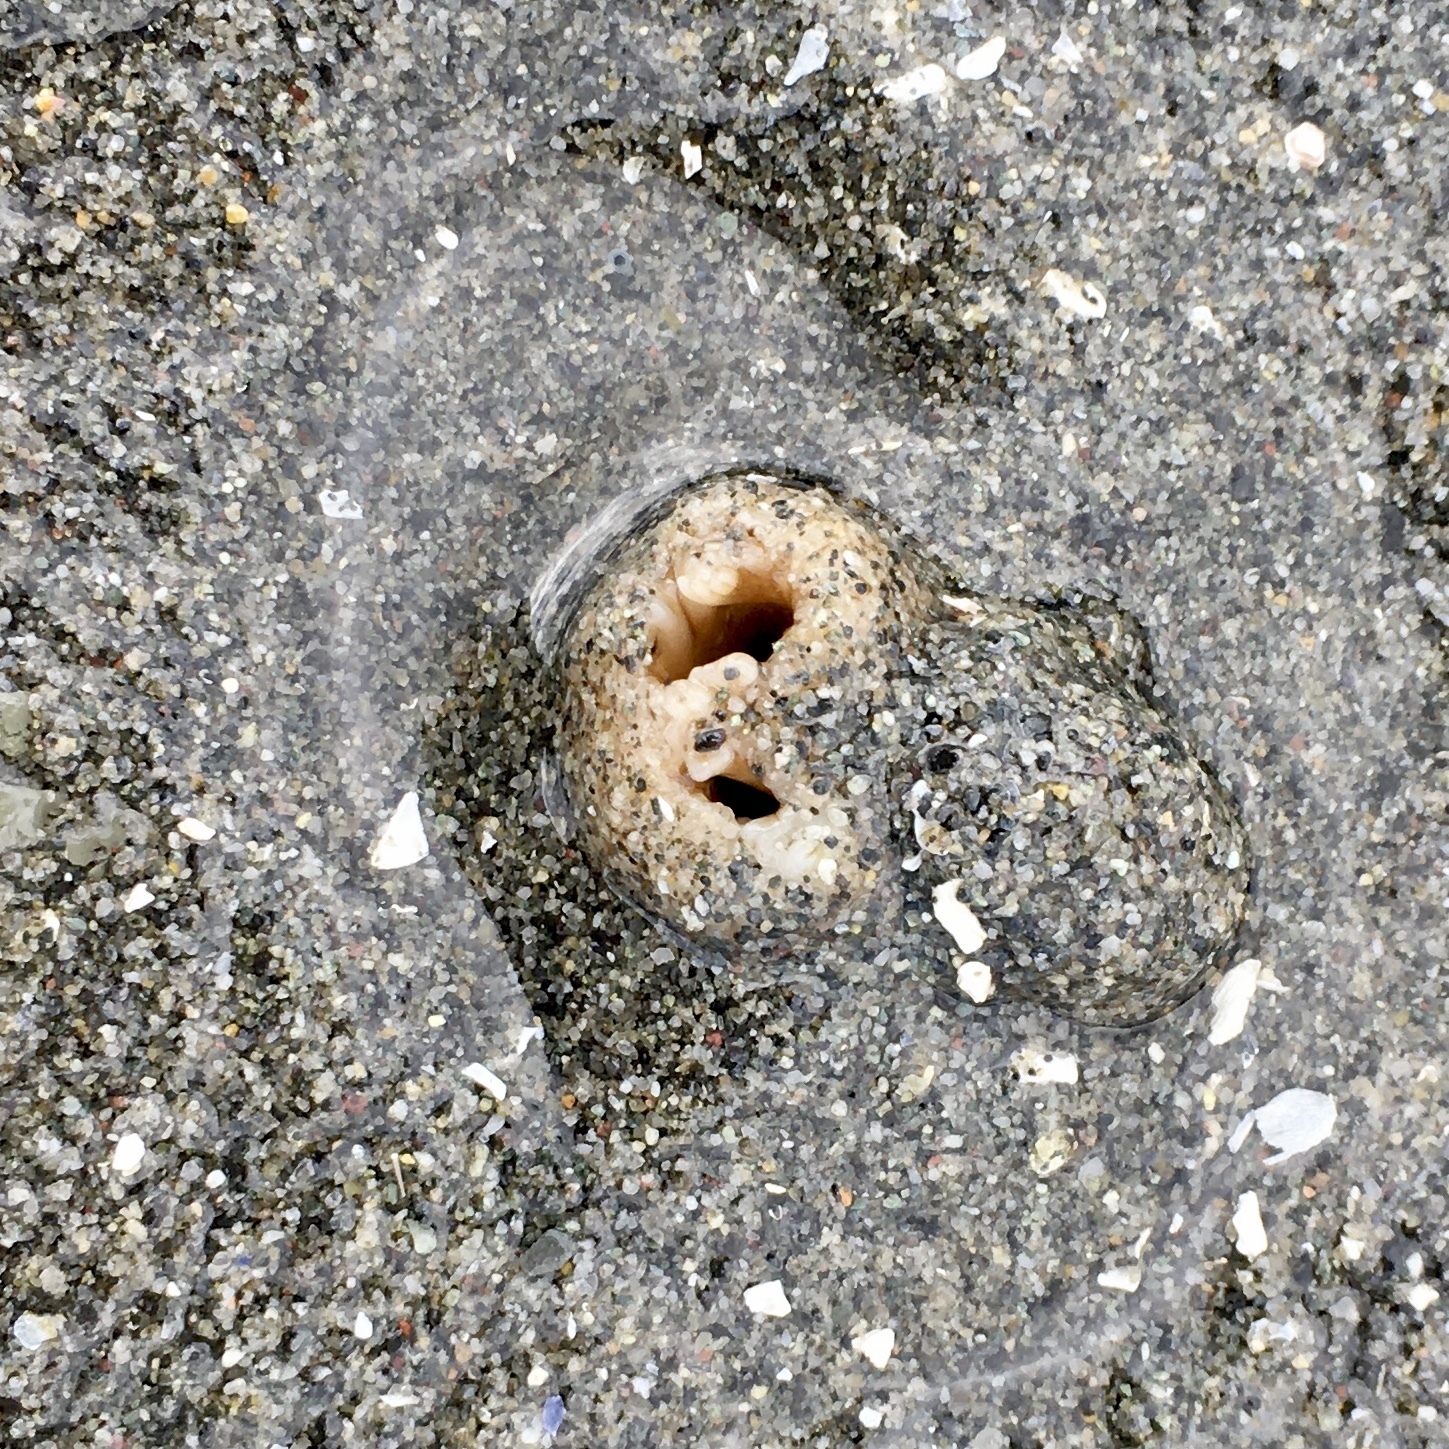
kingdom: Animalia
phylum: Mollusca
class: Bivalvia
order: Myida
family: Pholadidae
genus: Zirfaea
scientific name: Zirfaea pilsbryi
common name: Rough piddock
